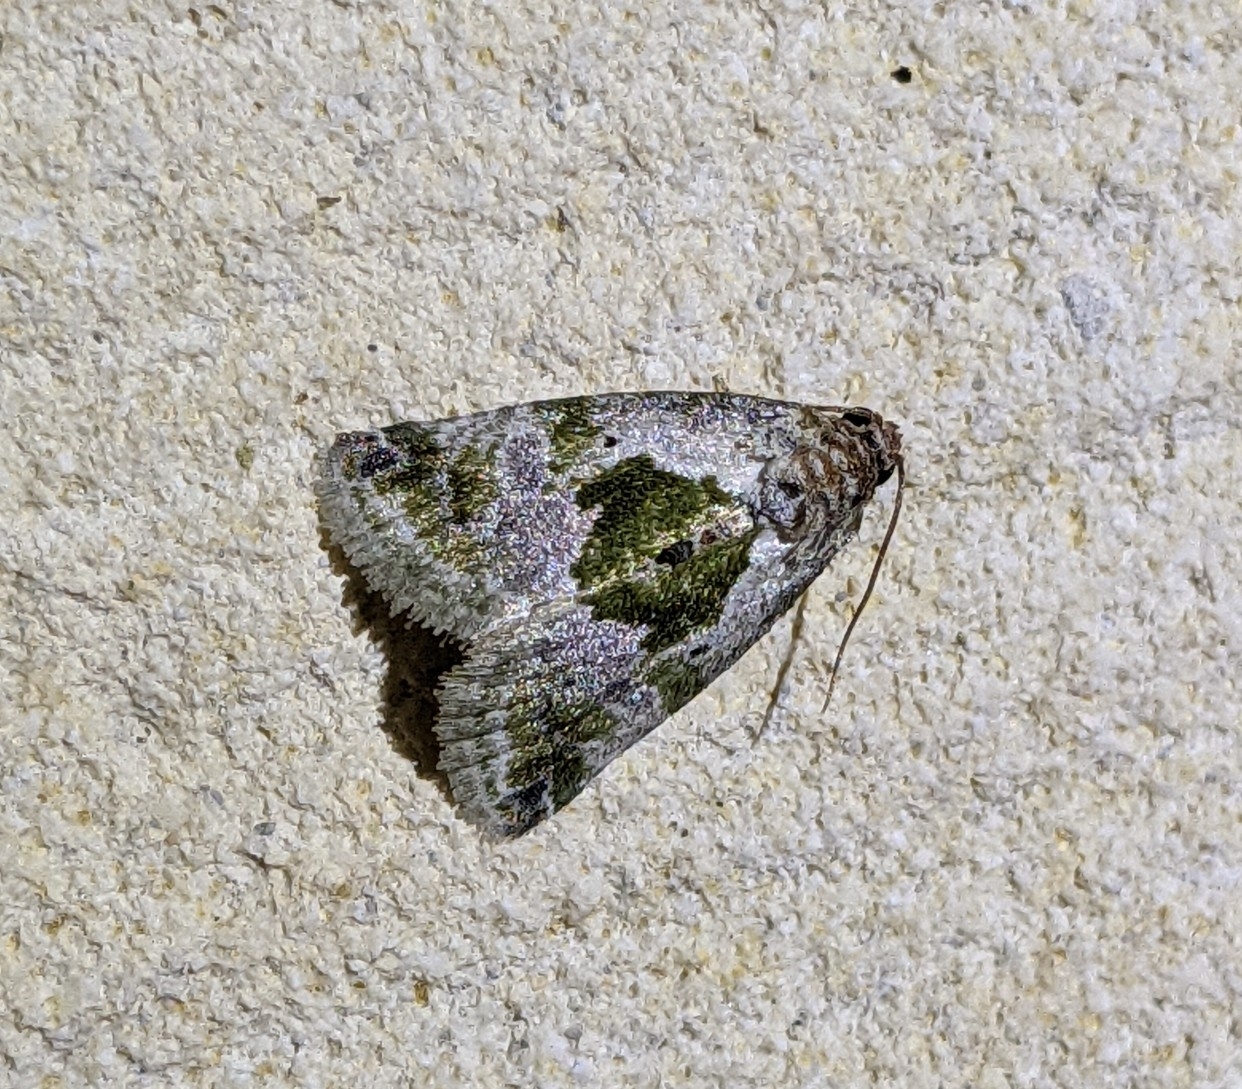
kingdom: Animalia
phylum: Arthropoda
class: Insecta
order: Lepidoptera
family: Noctuidae
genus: Maliattha
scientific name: Maliattha synochitis
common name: Black-dotted glyph
